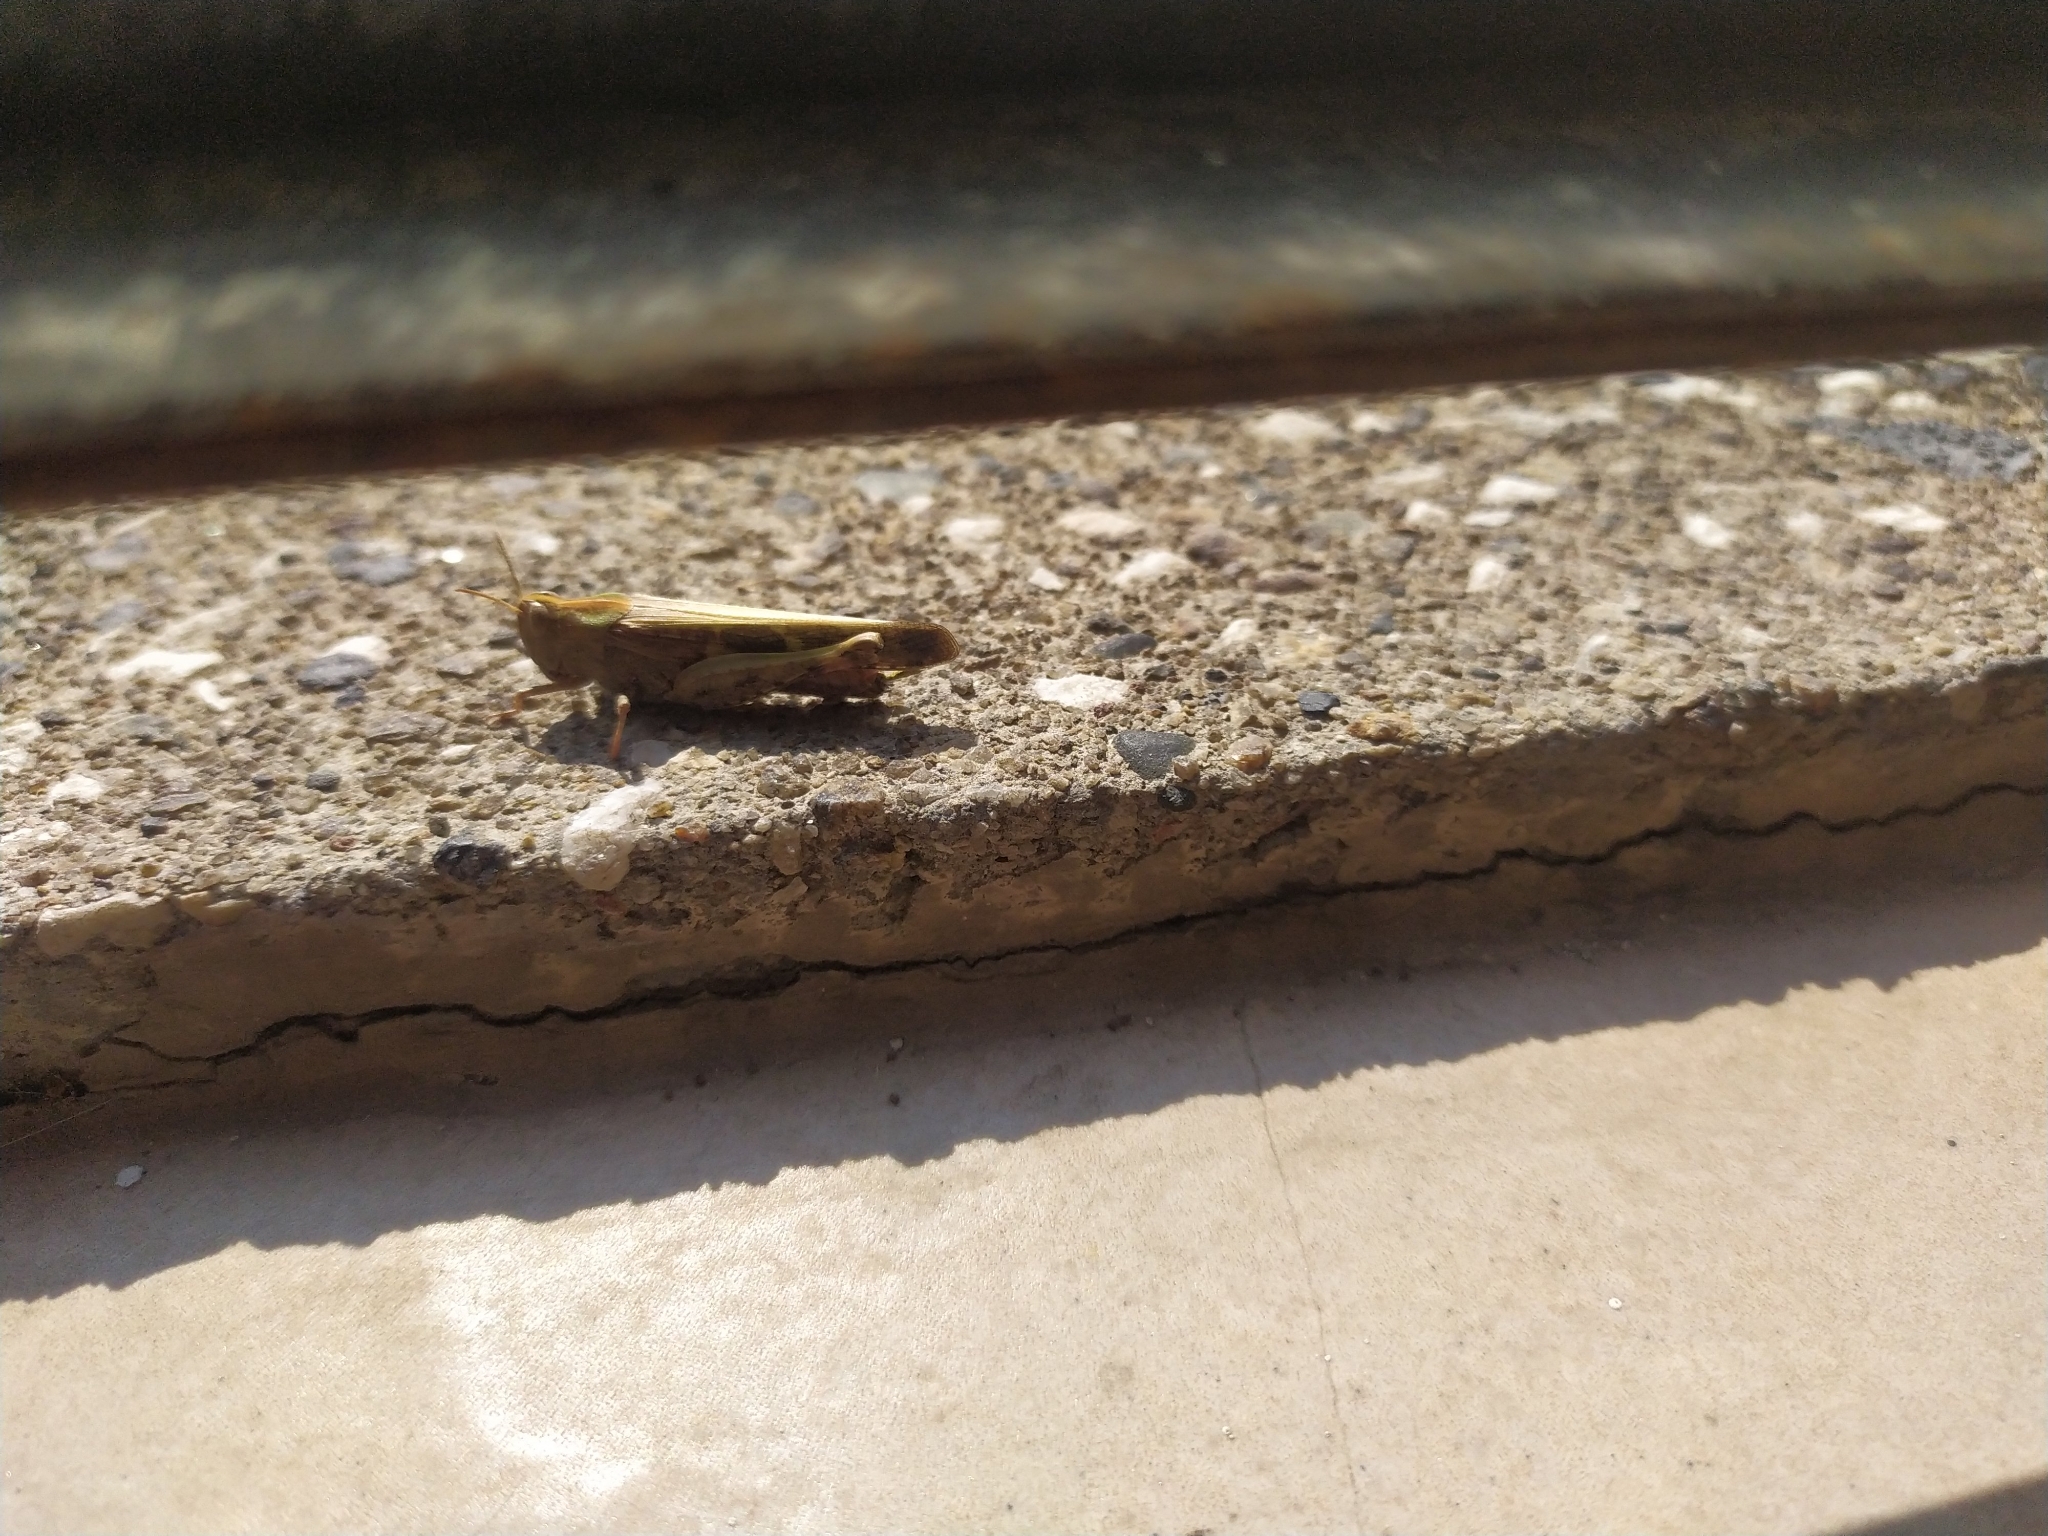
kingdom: Animalia
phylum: Arthropoda
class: Insecta
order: Orthoptera
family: Acrididae
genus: Aiolopus
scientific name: Aiolopus strepens
